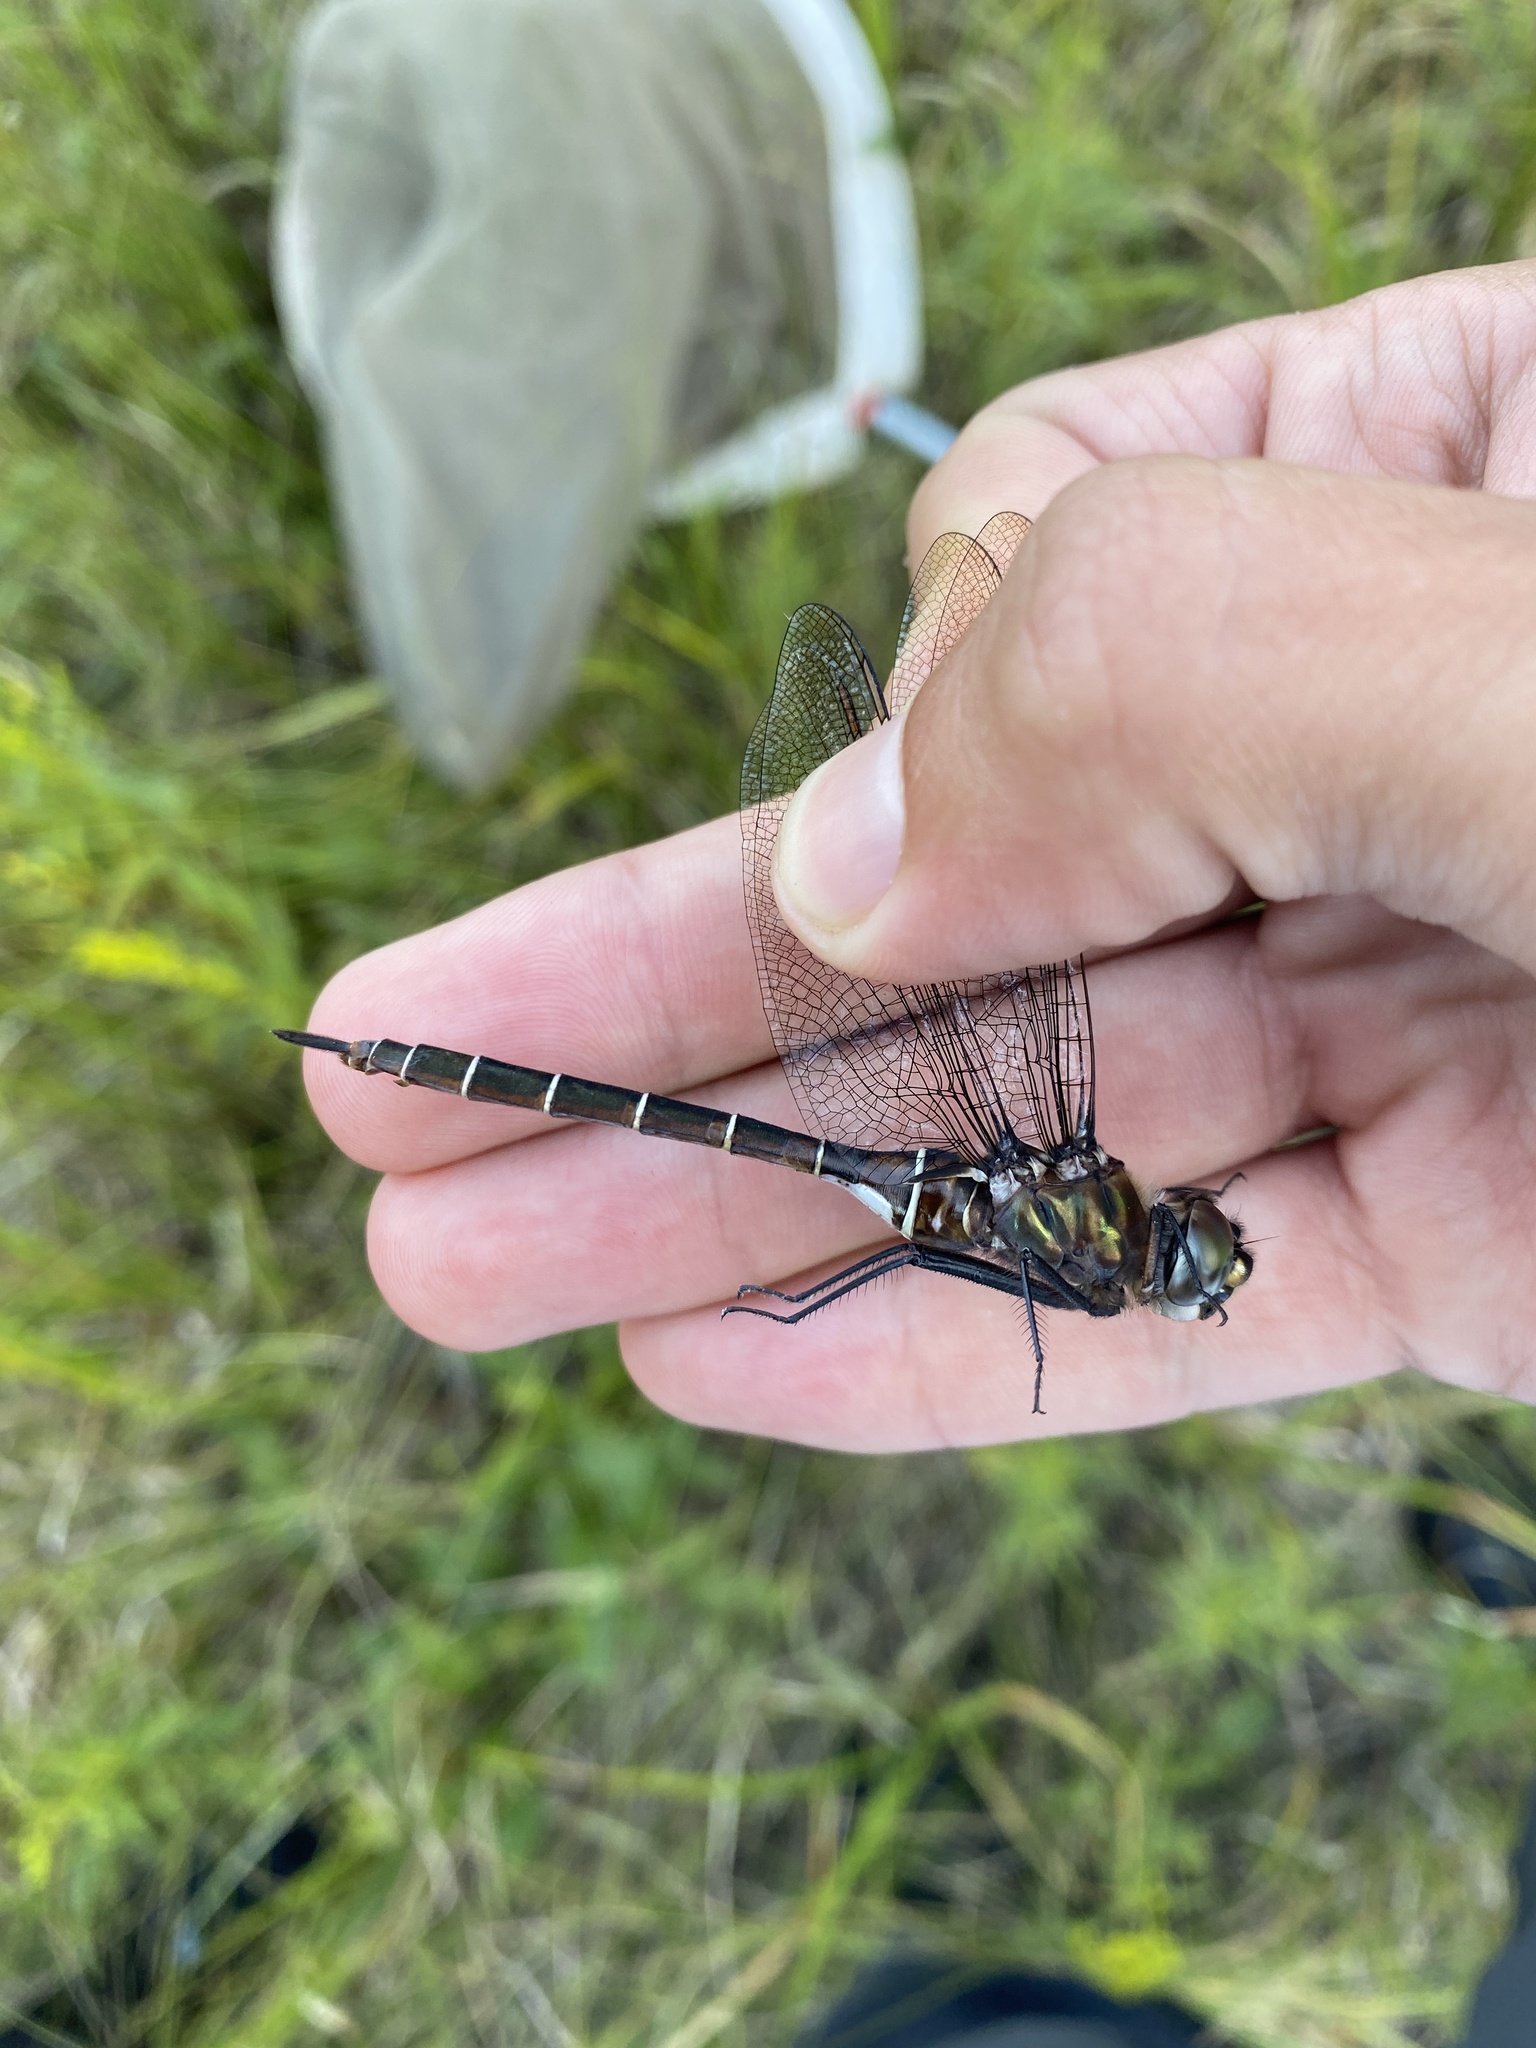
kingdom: Animalia
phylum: Arthropoda
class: Insecta
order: Odonata
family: Corduliidae
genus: Somatochlora
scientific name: Somatochlora cingulata
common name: Lake emerald
